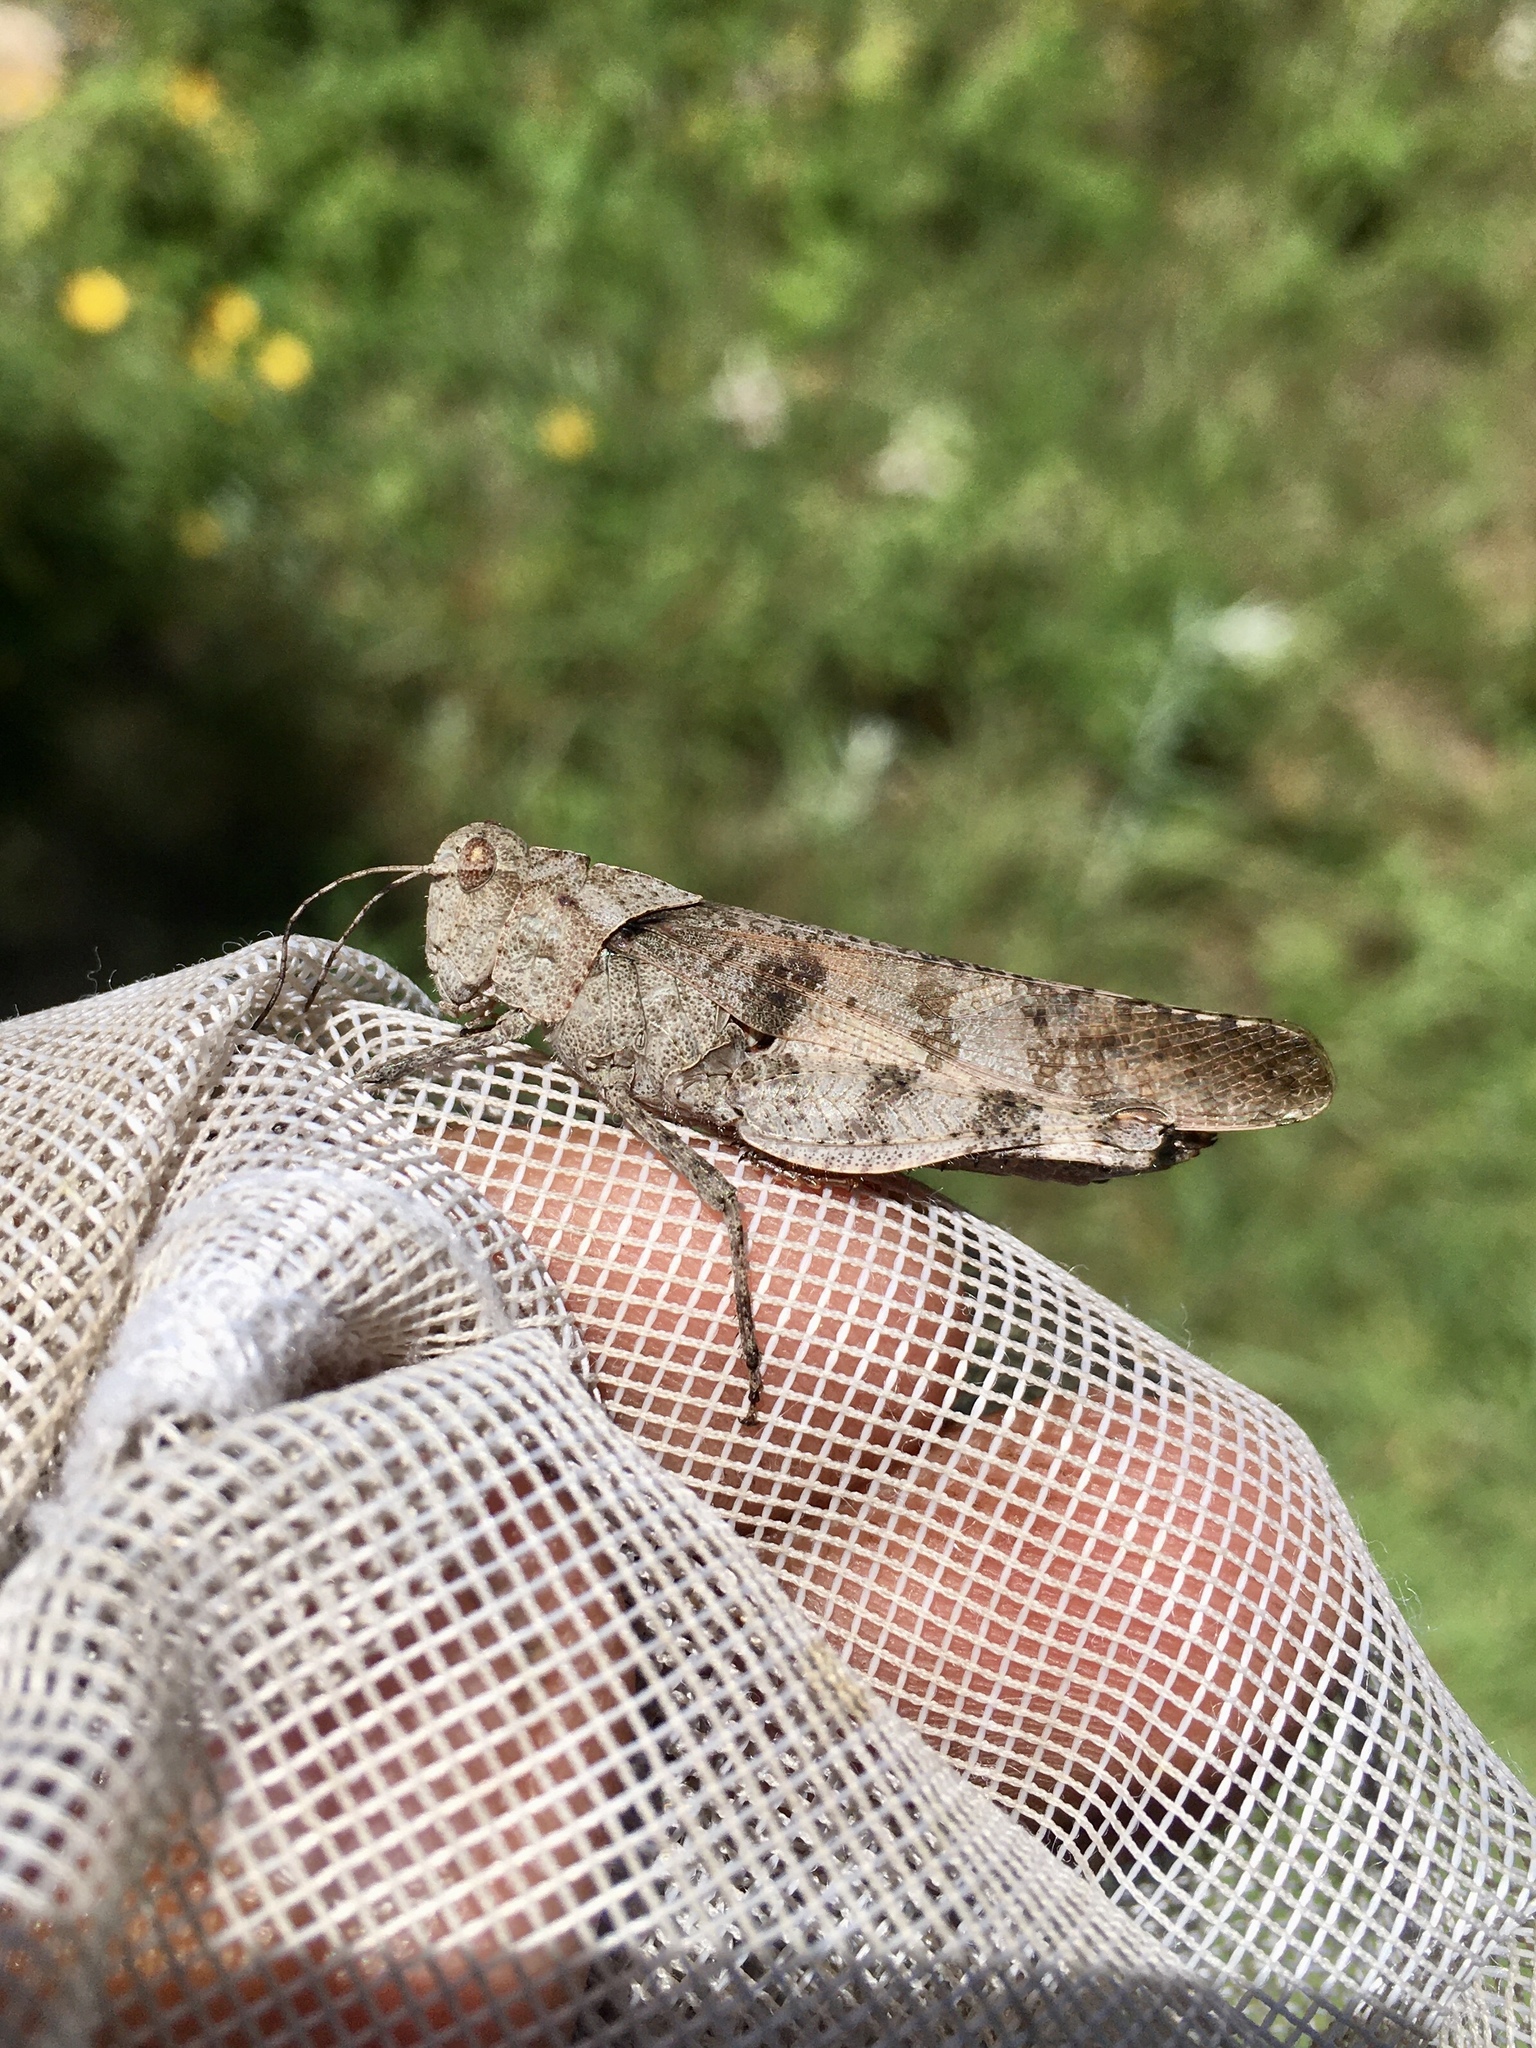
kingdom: Animalia
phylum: Arthropoda
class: Insecta
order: Orthoptera
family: Acrididae
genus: Spharagemon
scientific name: Spharagemon bolli
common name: Boll's grasshopper
